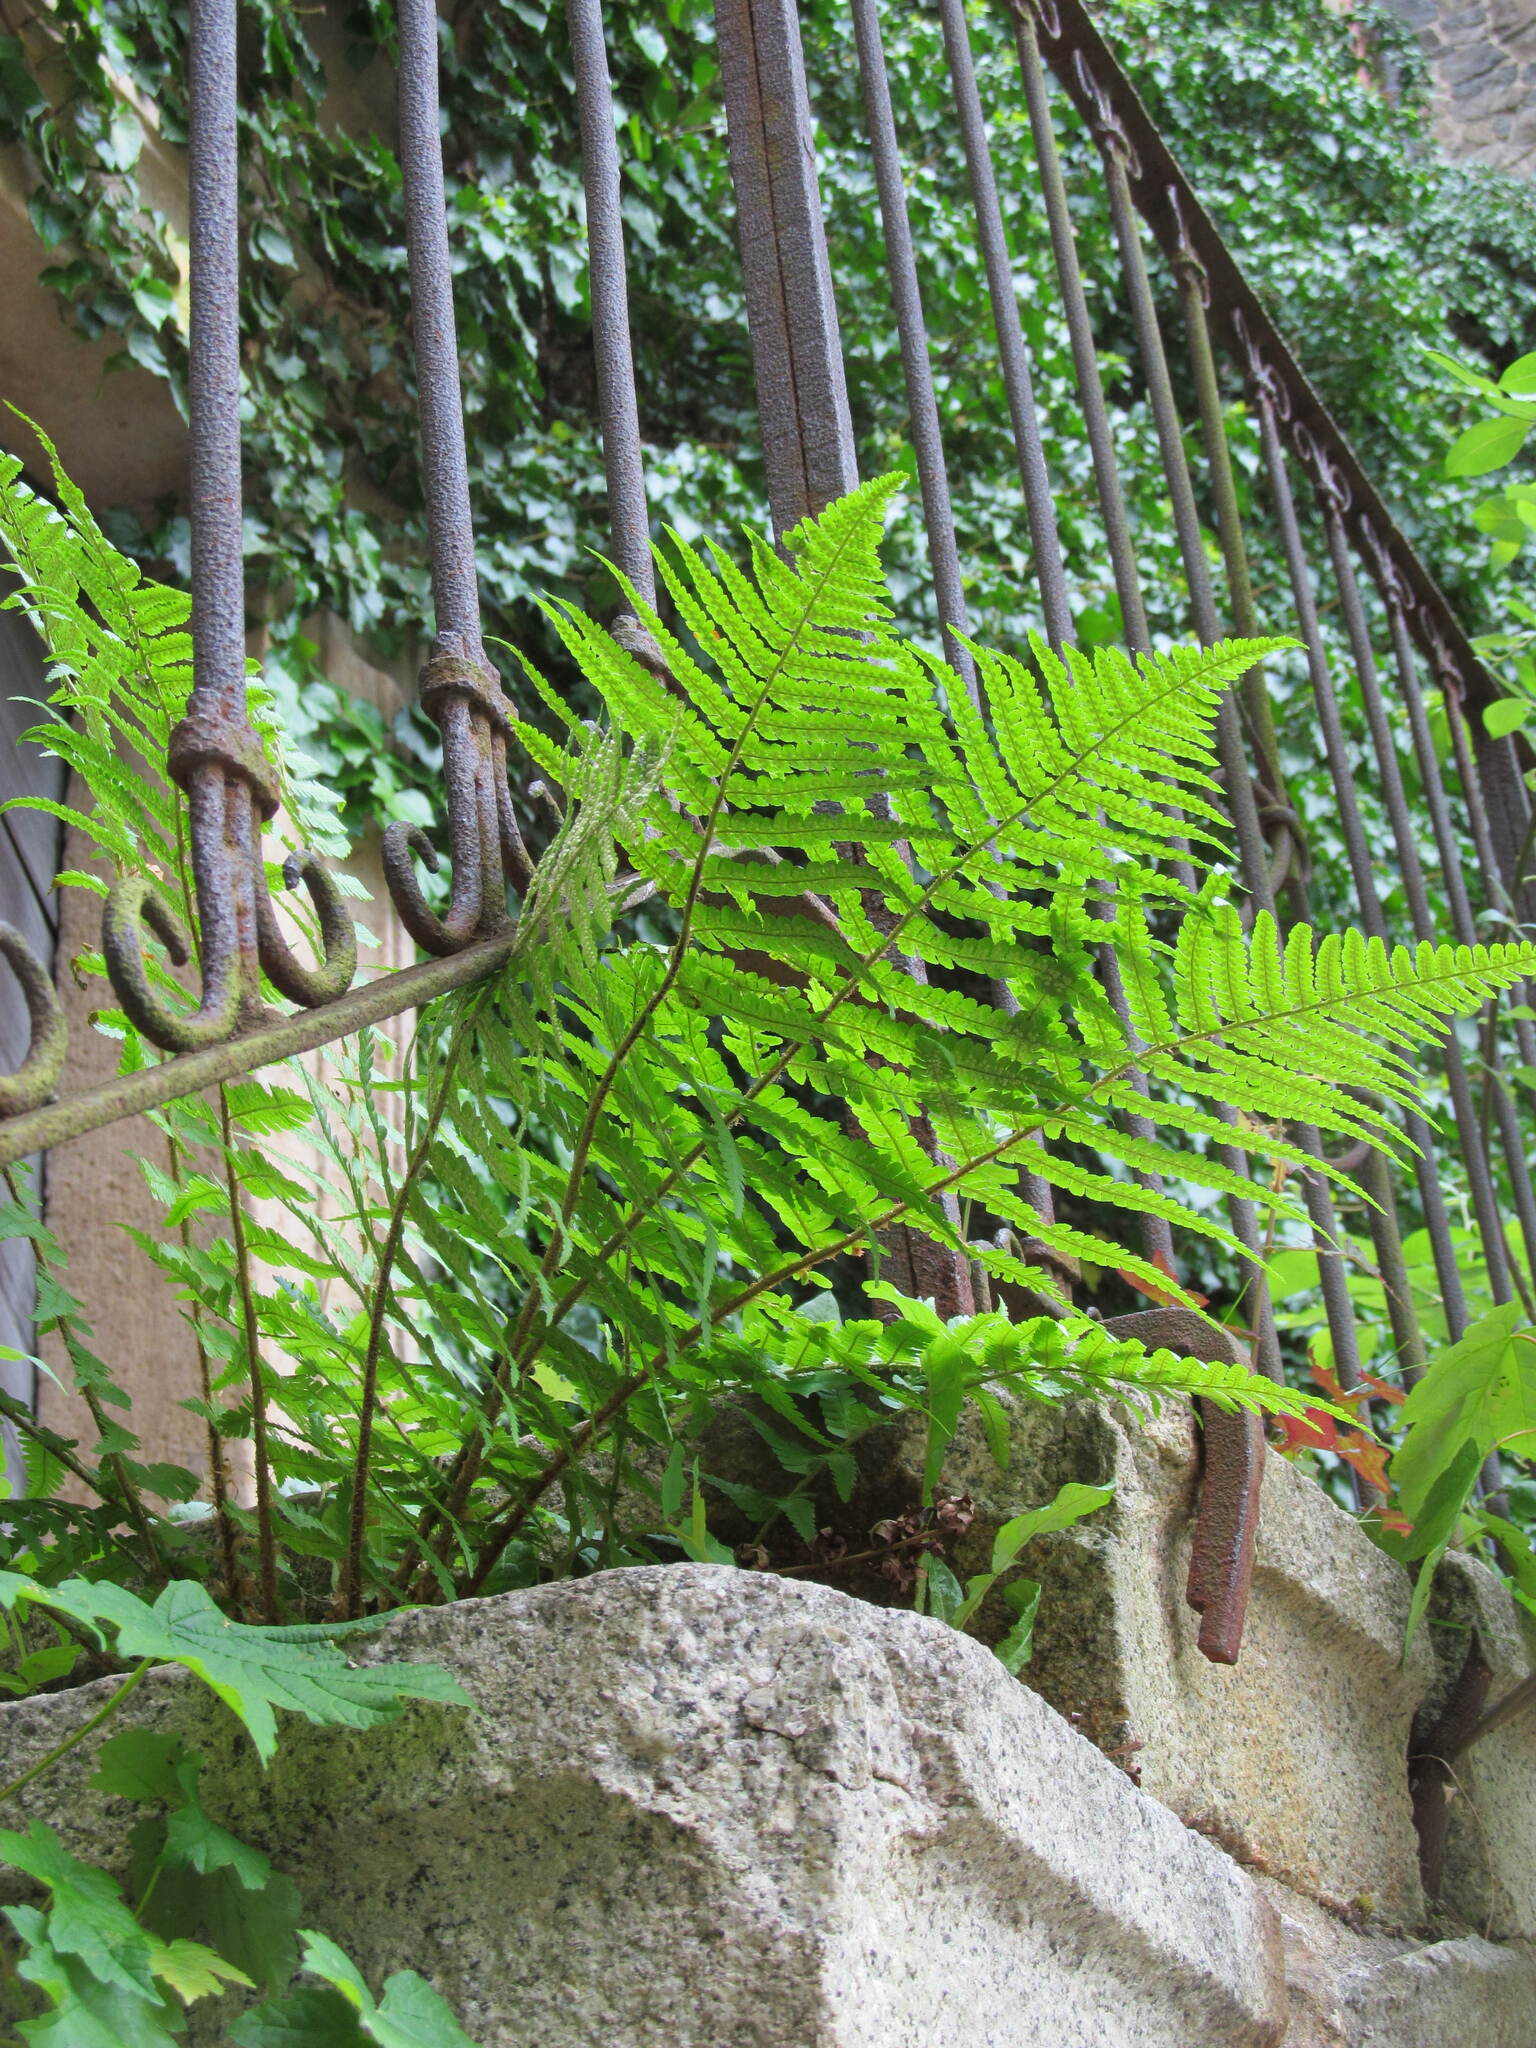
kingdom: Plantae
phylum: Tracheophyta
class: Polypodiopsida
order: Polypodiales
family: Dryopteridaceae
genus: Dryopteris
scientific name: Dryopteris filix-mas
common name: Male fern
